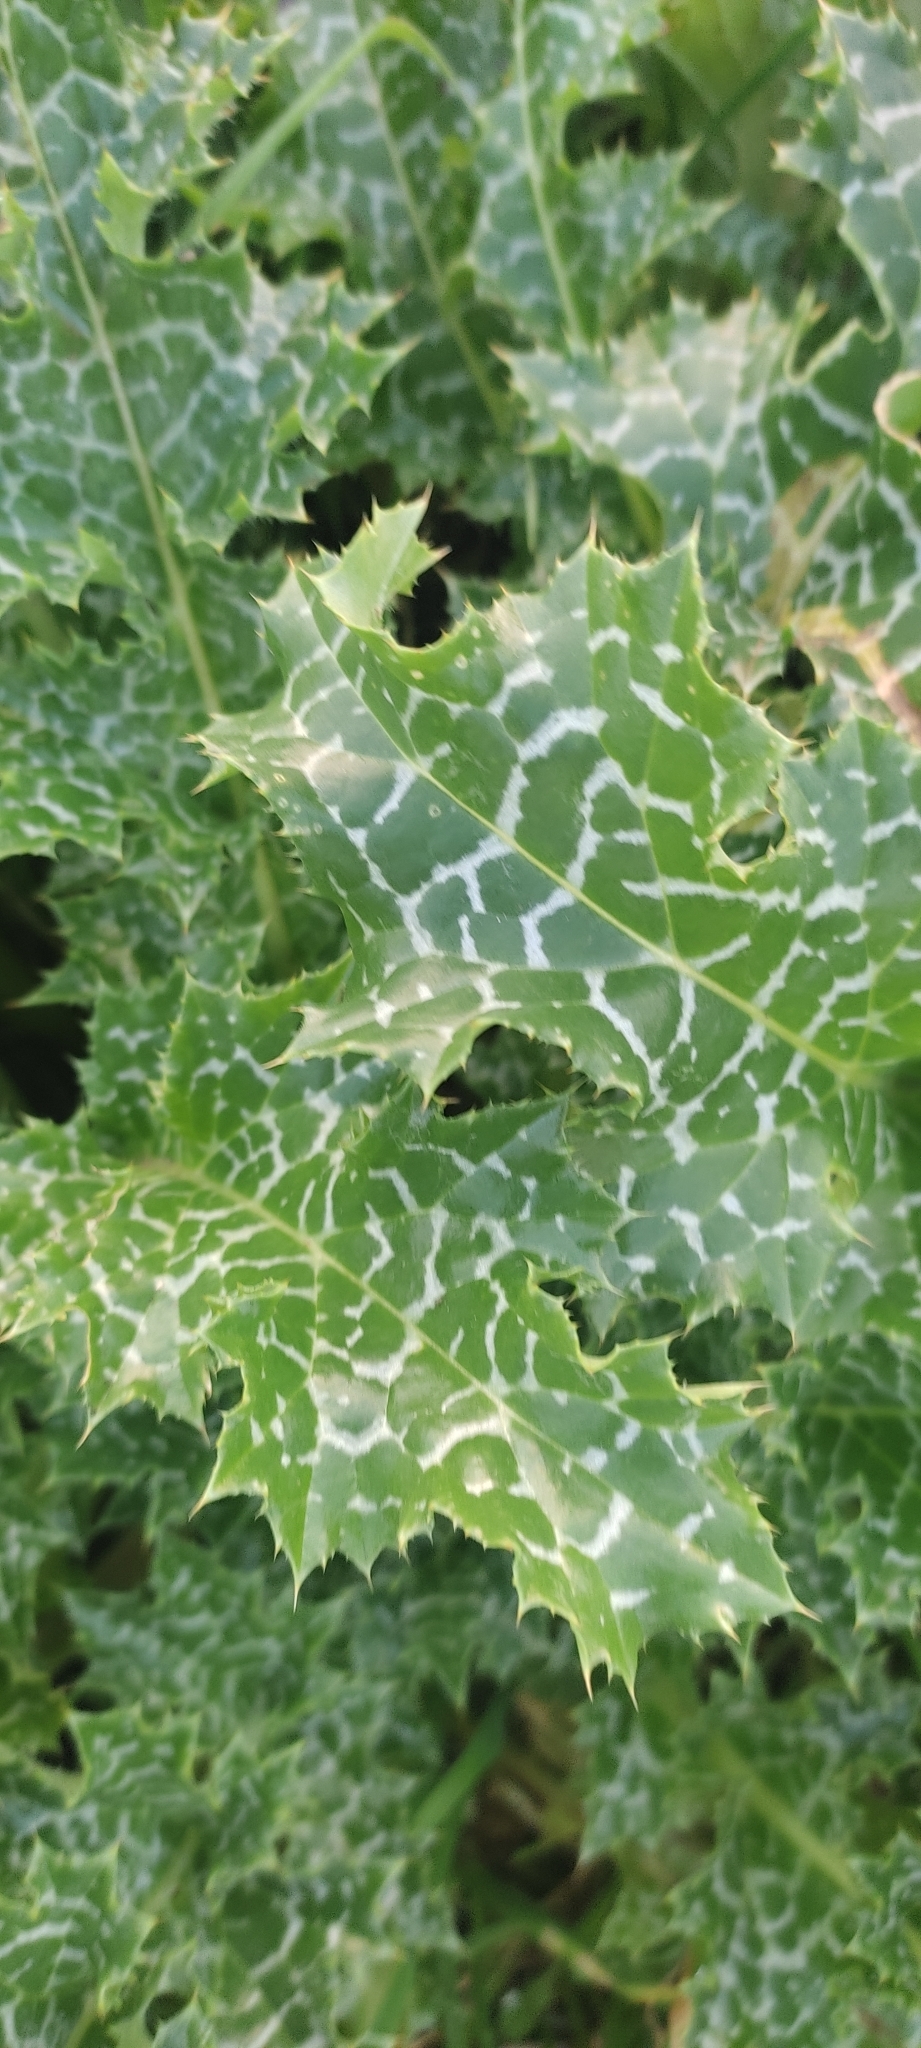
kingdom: Plantae
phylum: Tracheophyta
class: Magnoliopsida
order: Asterales
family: Asteraceae
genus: Silybum
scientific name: Silybum marianum
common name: Milk thistle
